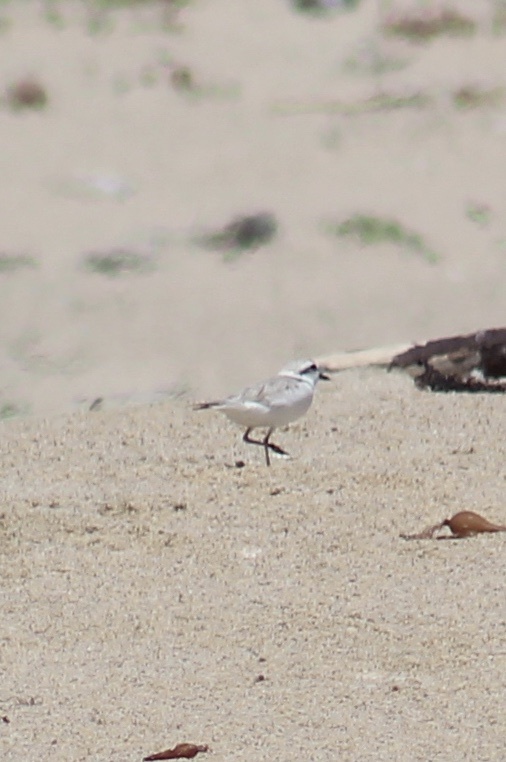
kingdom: Animalia
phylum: Chordata
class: Aves
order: Charadriiformes
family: Charadriidae
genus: Anarhynchus
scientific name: Anarhynchus
